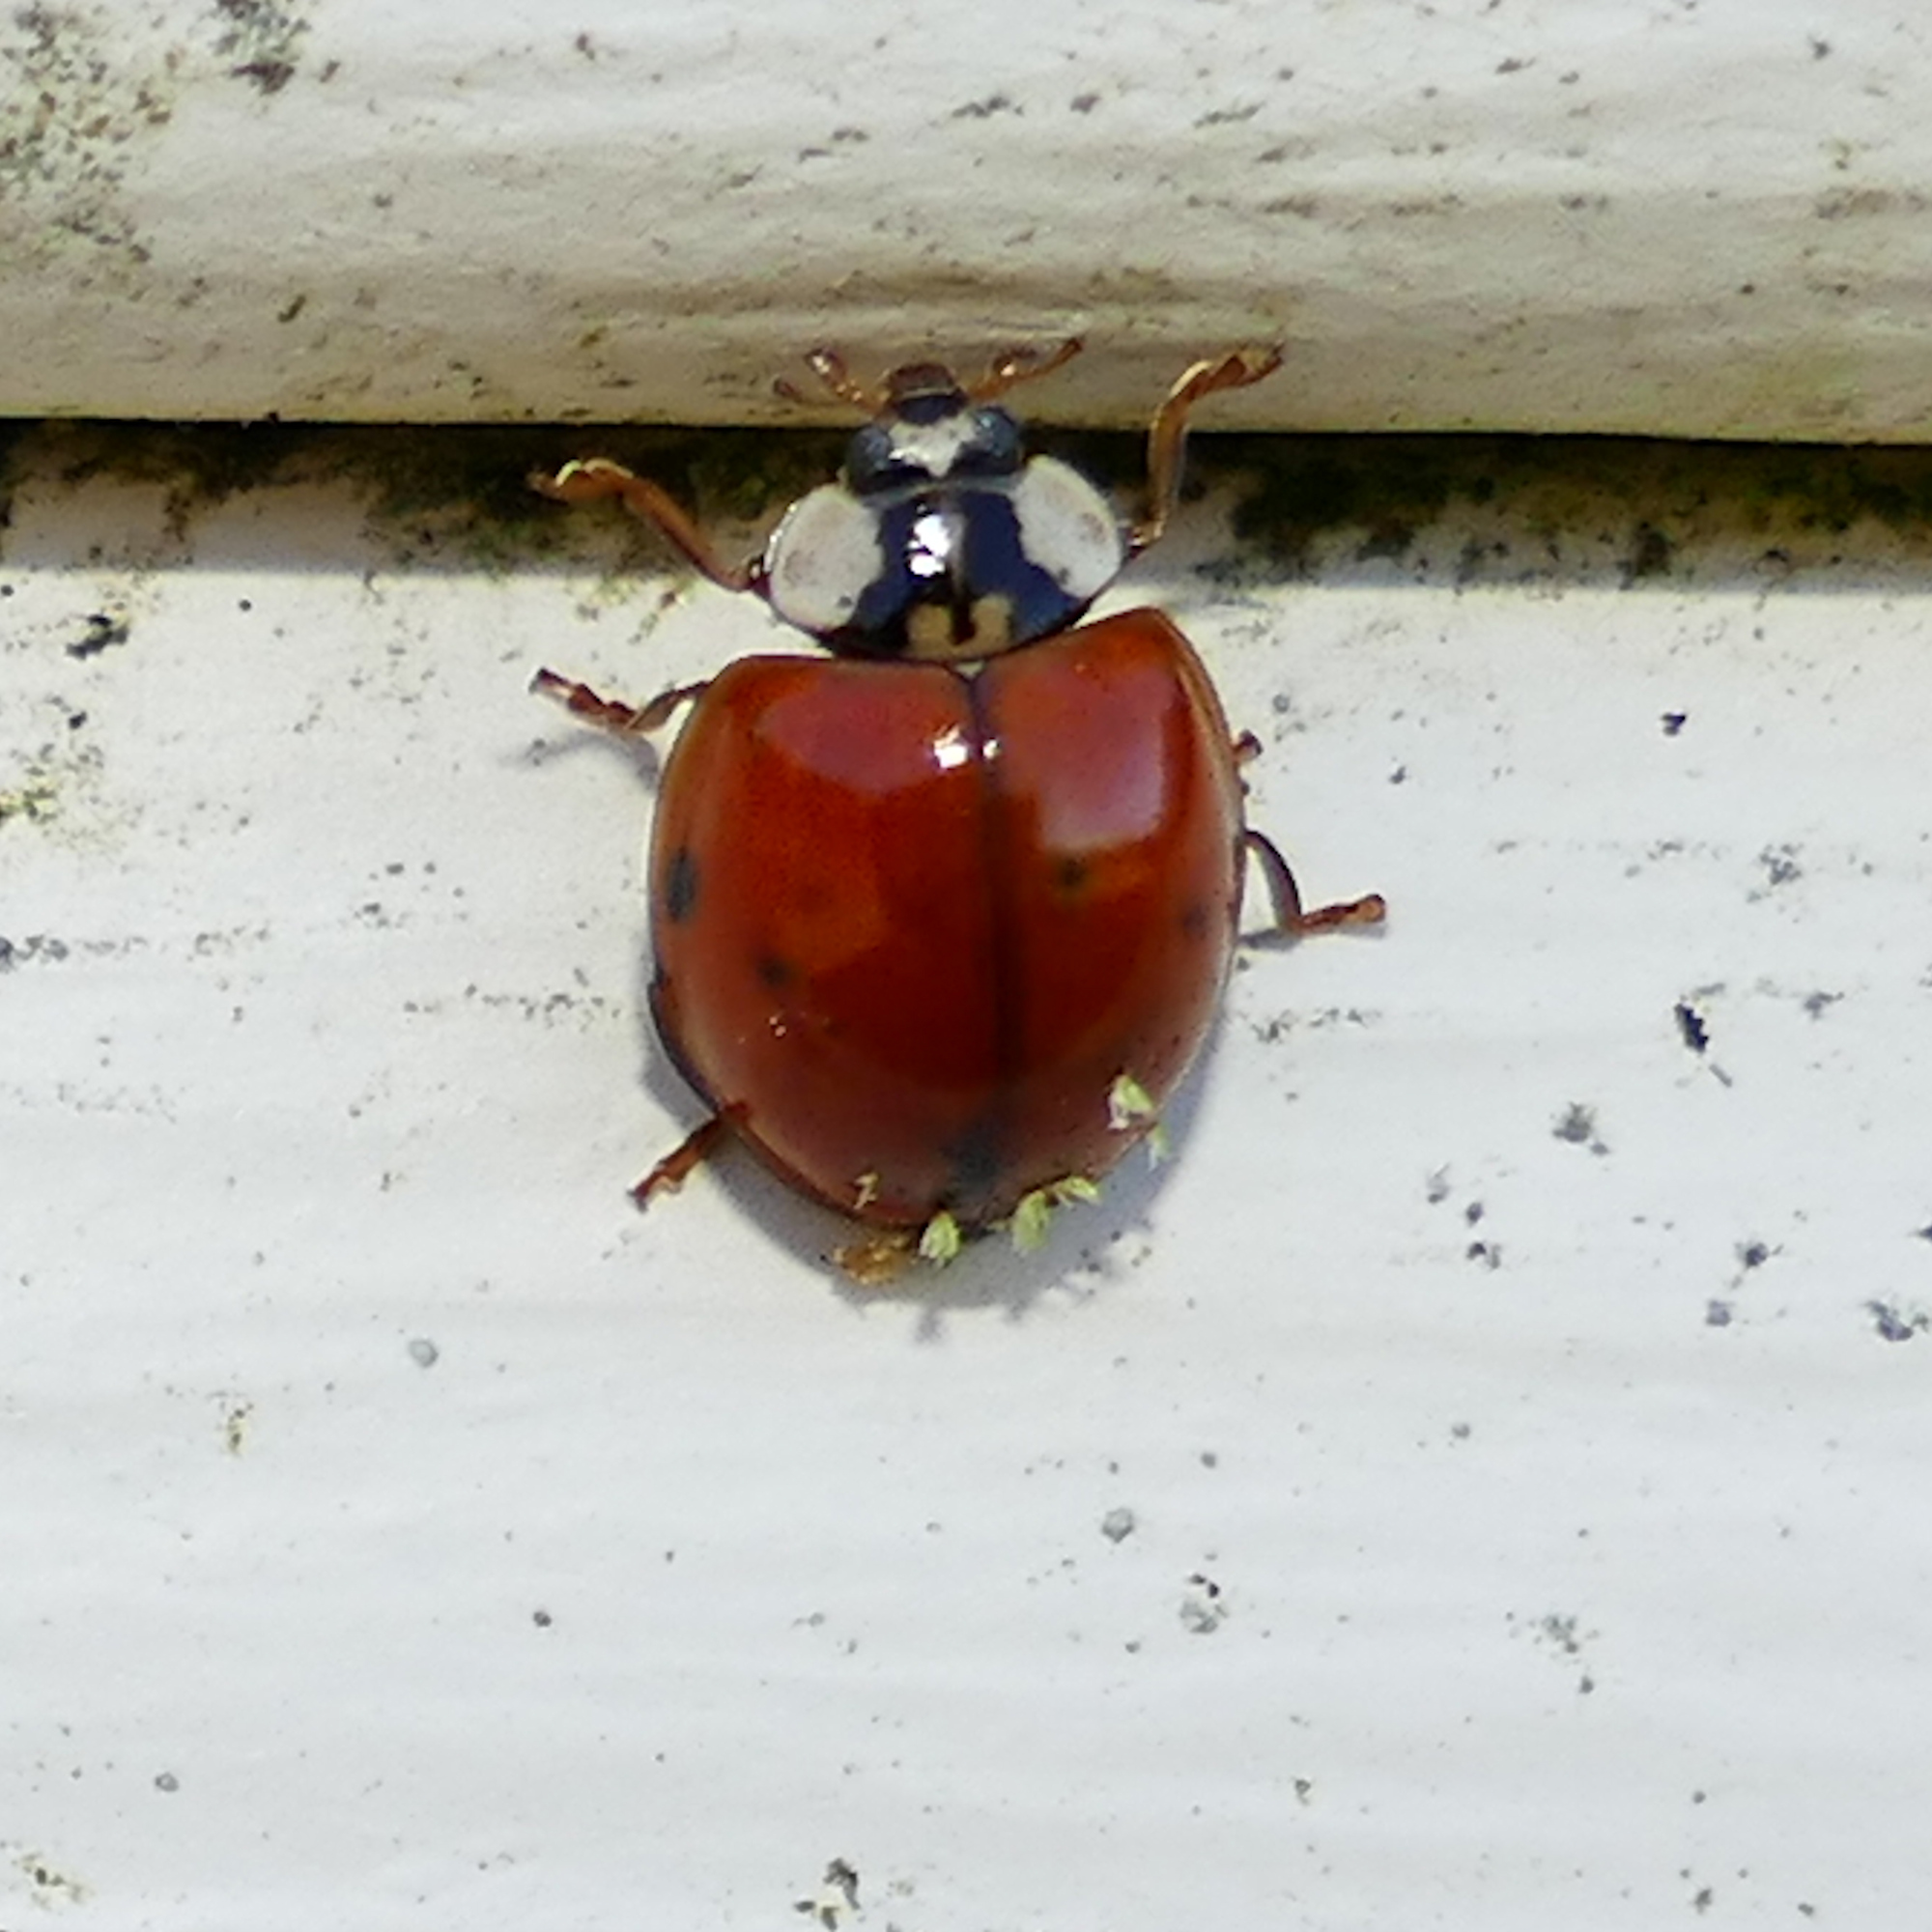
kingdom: Fungi
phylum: Ascomycota
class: Laboulbeniomycetes
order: Laboulbeniales
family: Laboulbeniaceae
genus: Hesperomyces
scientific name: Hesperomyces harmoniae
